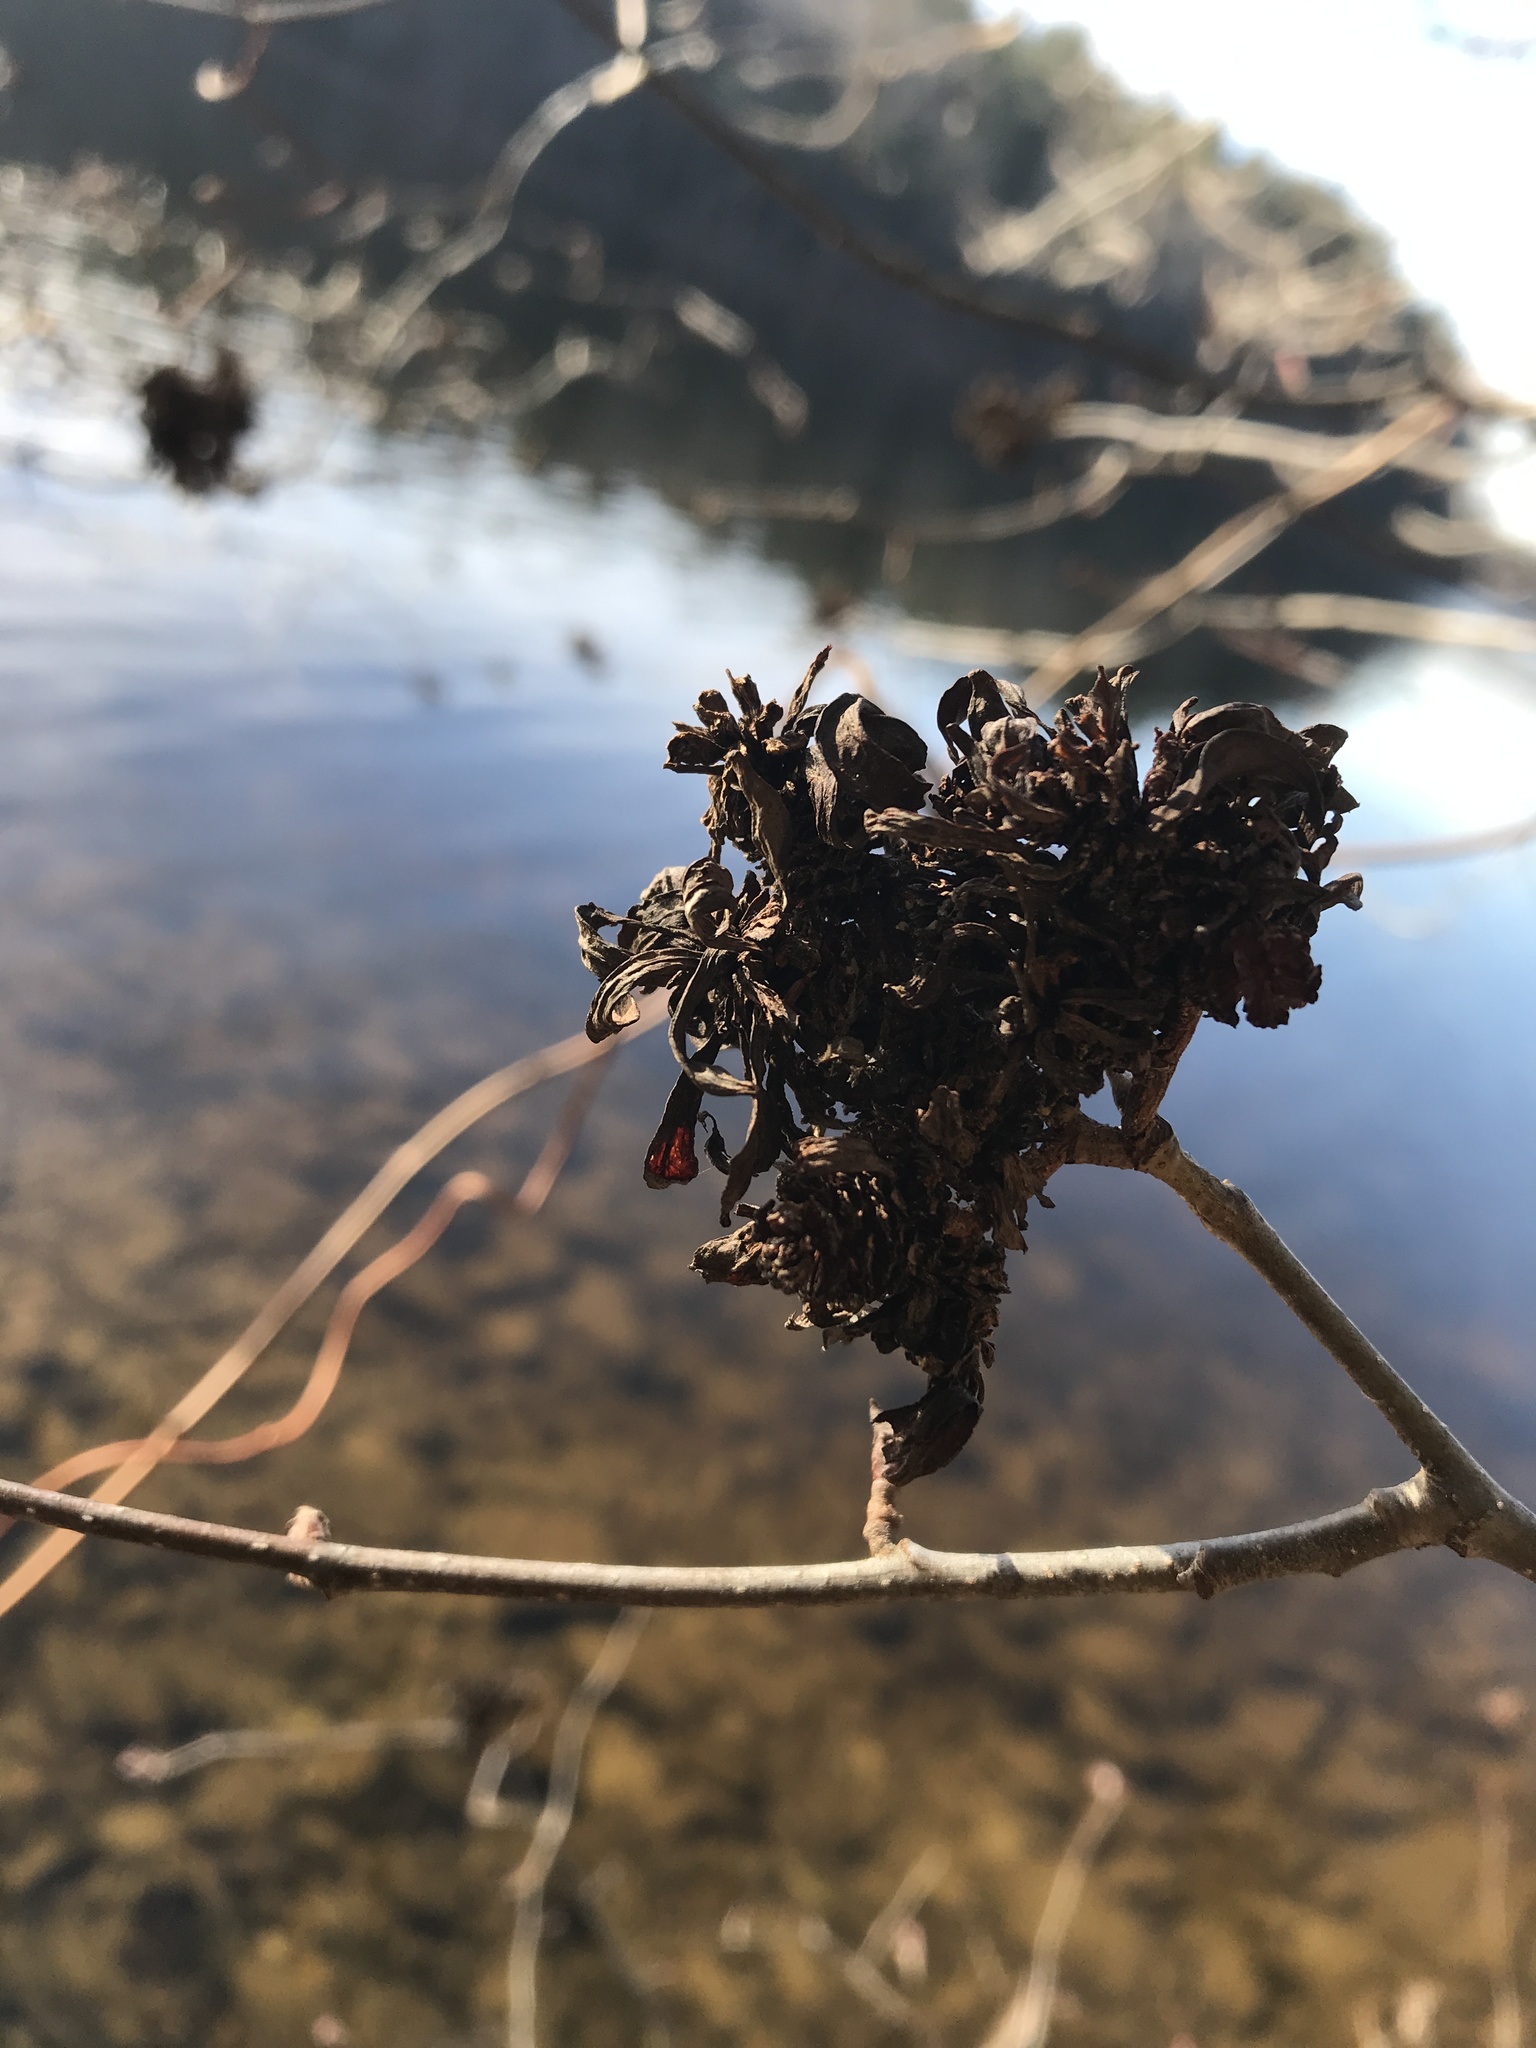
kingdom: Fungi
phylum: Ascomycota
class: Taphrinomycetes
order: Taphrinales
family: Taphrinaceae
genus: Taphrina
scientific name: Taphrina robinsoniana
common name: Eastern american alder tongue gall fungus
